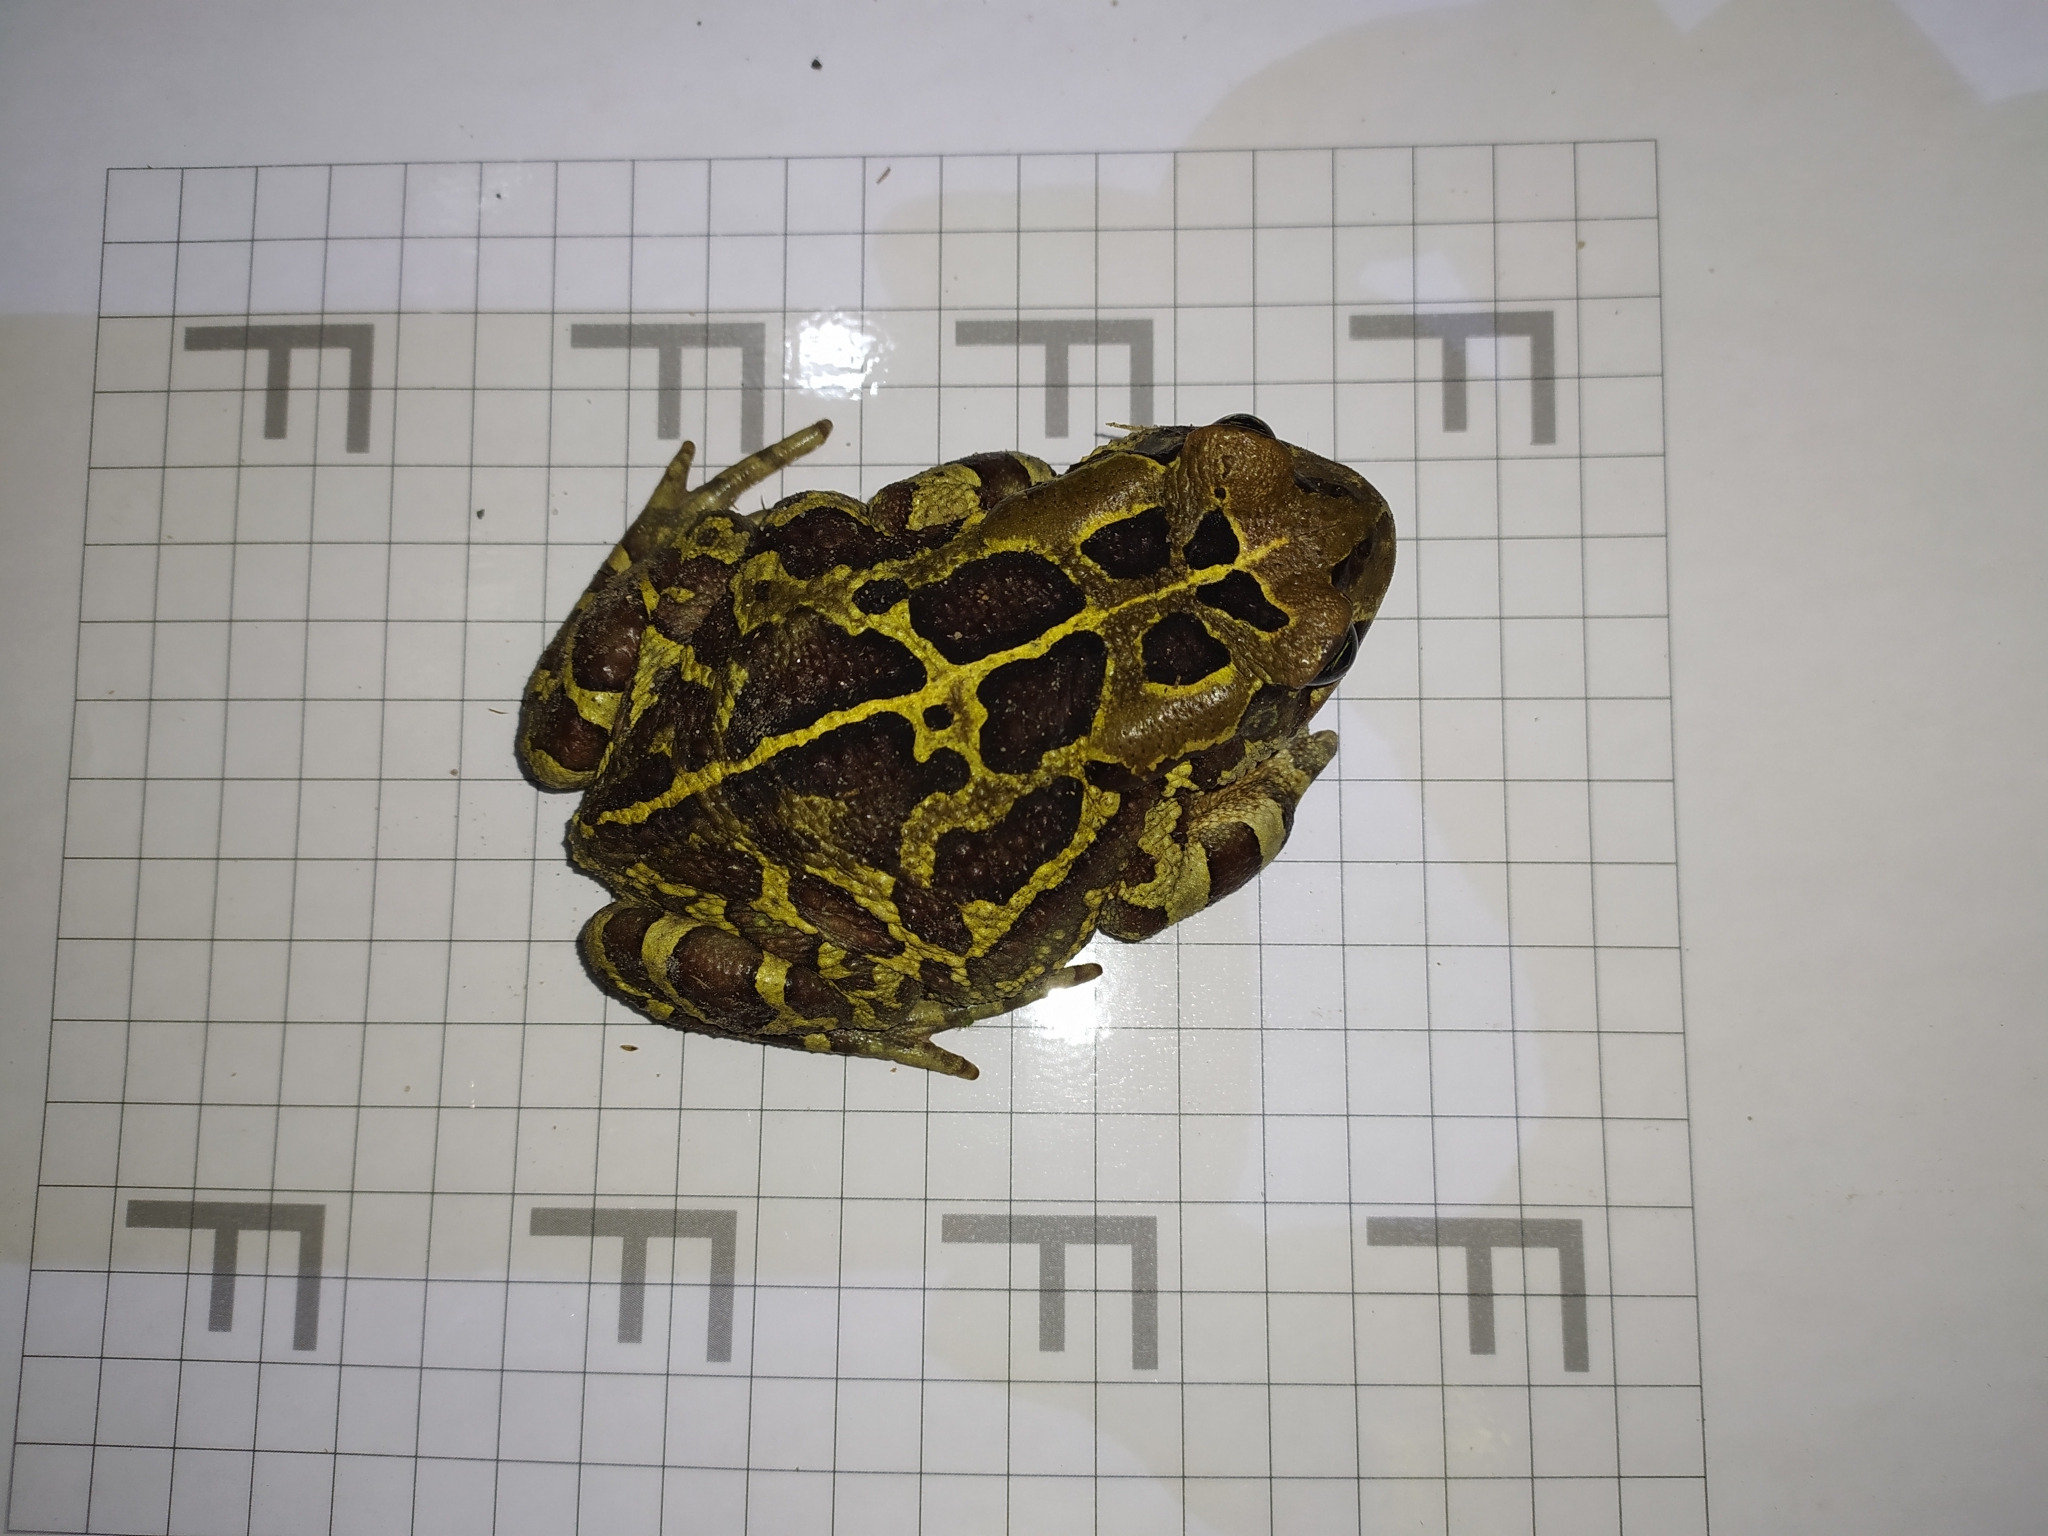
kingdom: Animalia
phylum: Chordata
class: Amphibia
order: Anura
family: Bufonidae
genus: Sclerophrys
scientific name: Sclerophrys pantherina
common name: Panther toad
